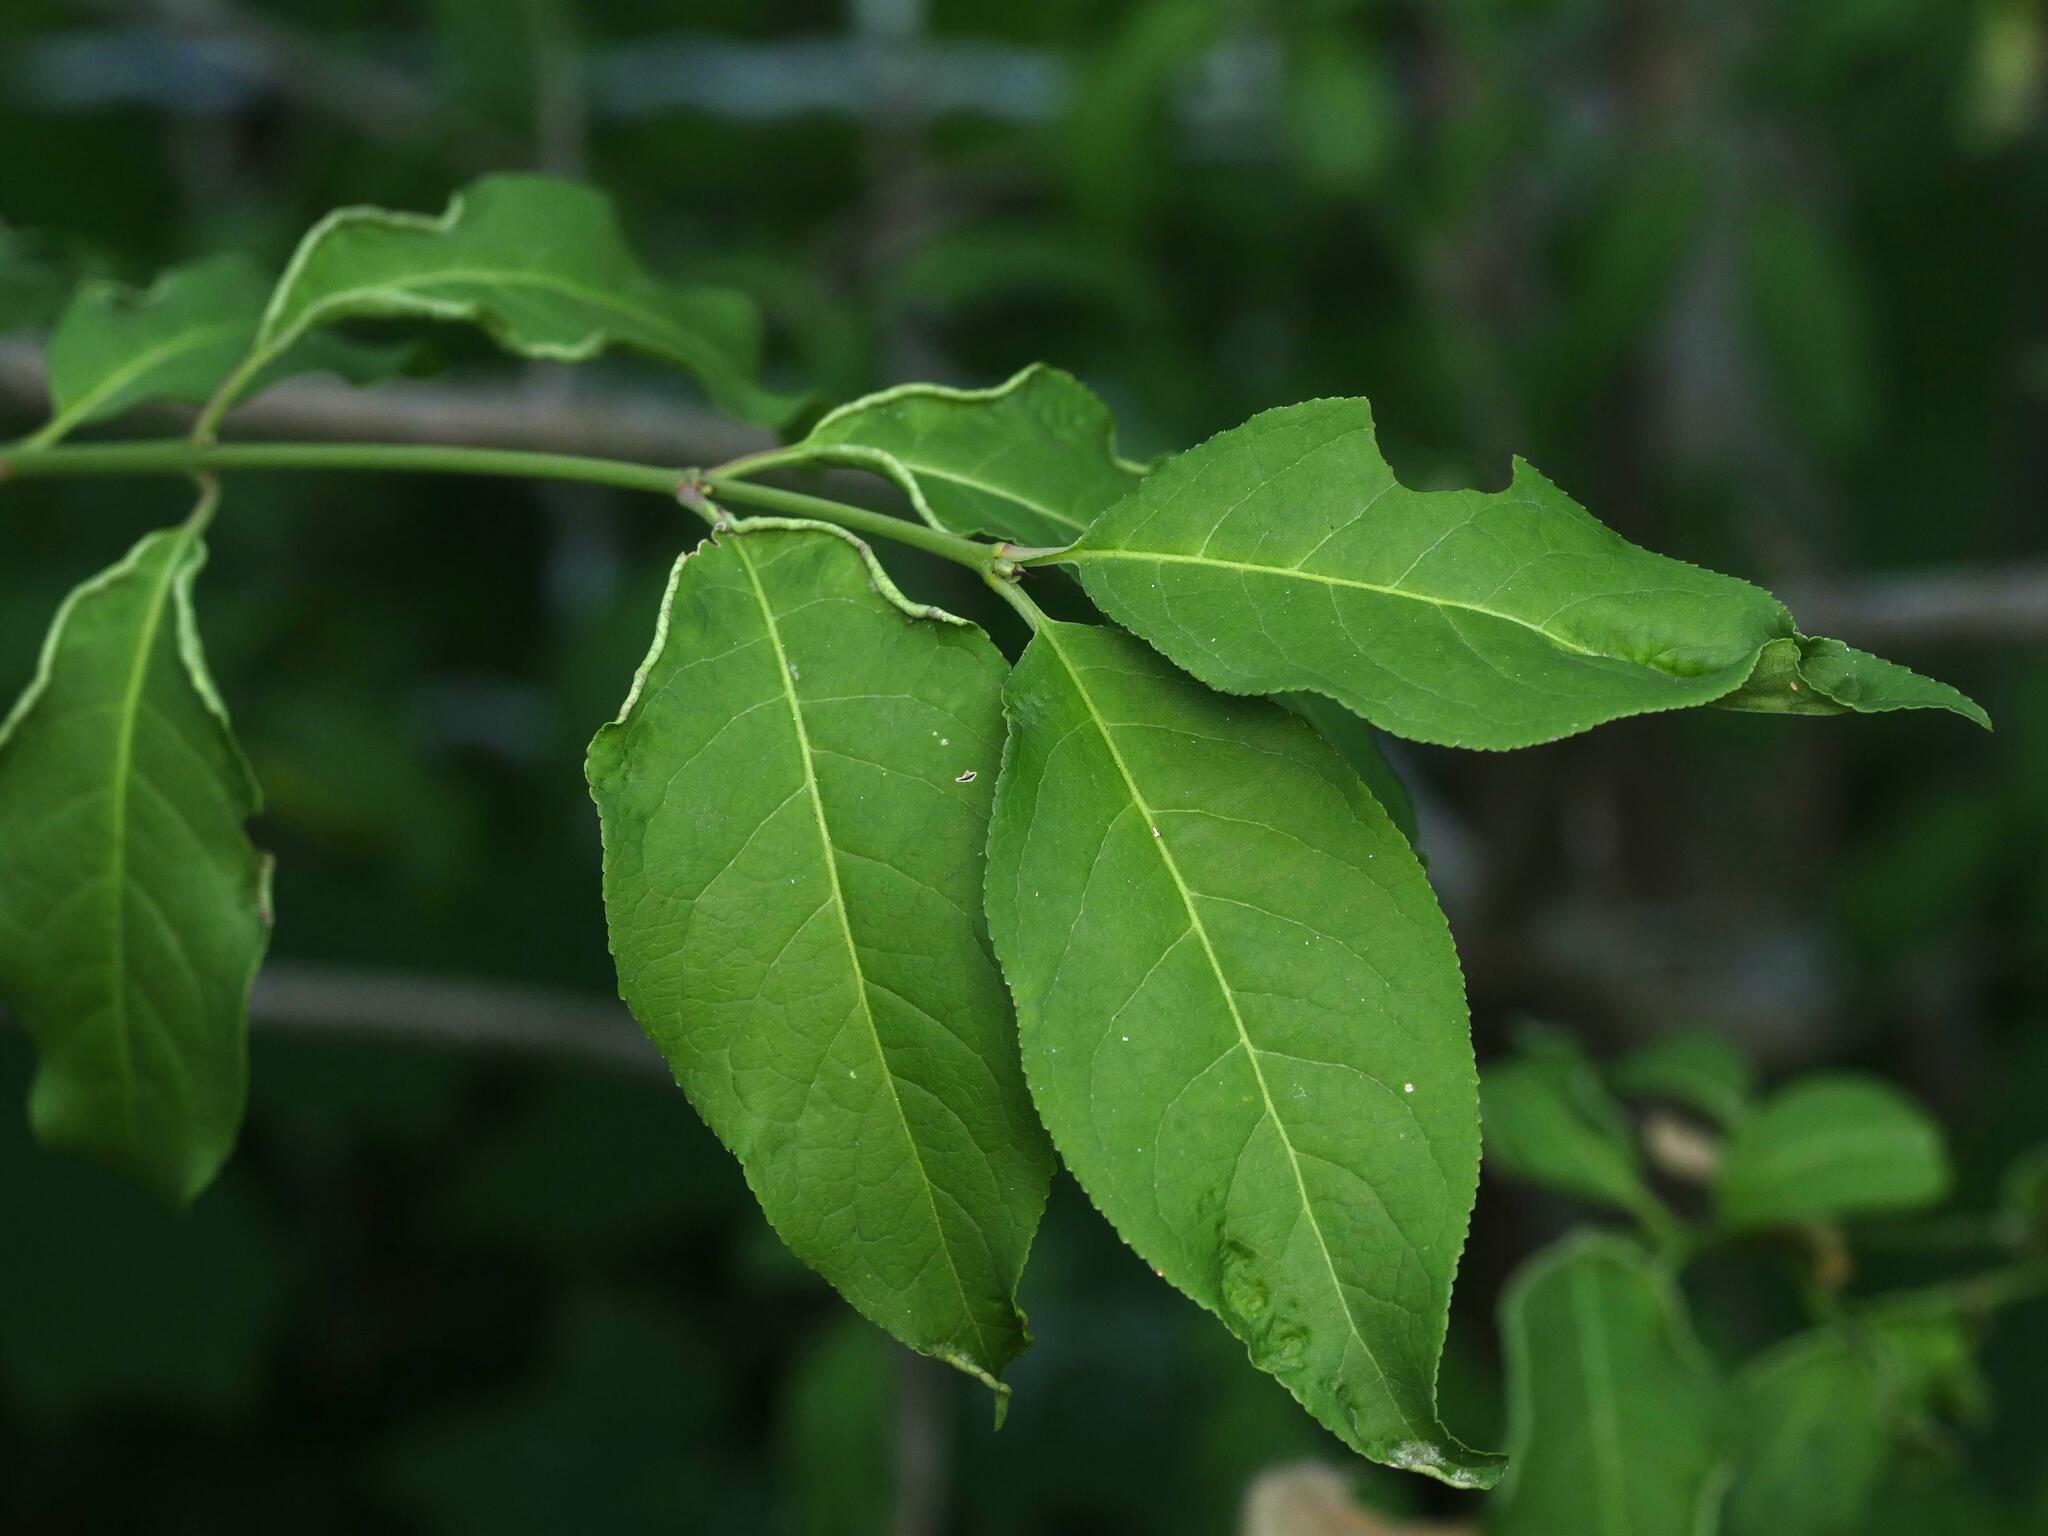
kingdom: Plantae
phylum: Tracheophyta
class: Magnoliopsida
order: Celastrales
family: Celastraceae
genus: Euonymus
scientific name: Euonymus europaeus
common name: Spindle
